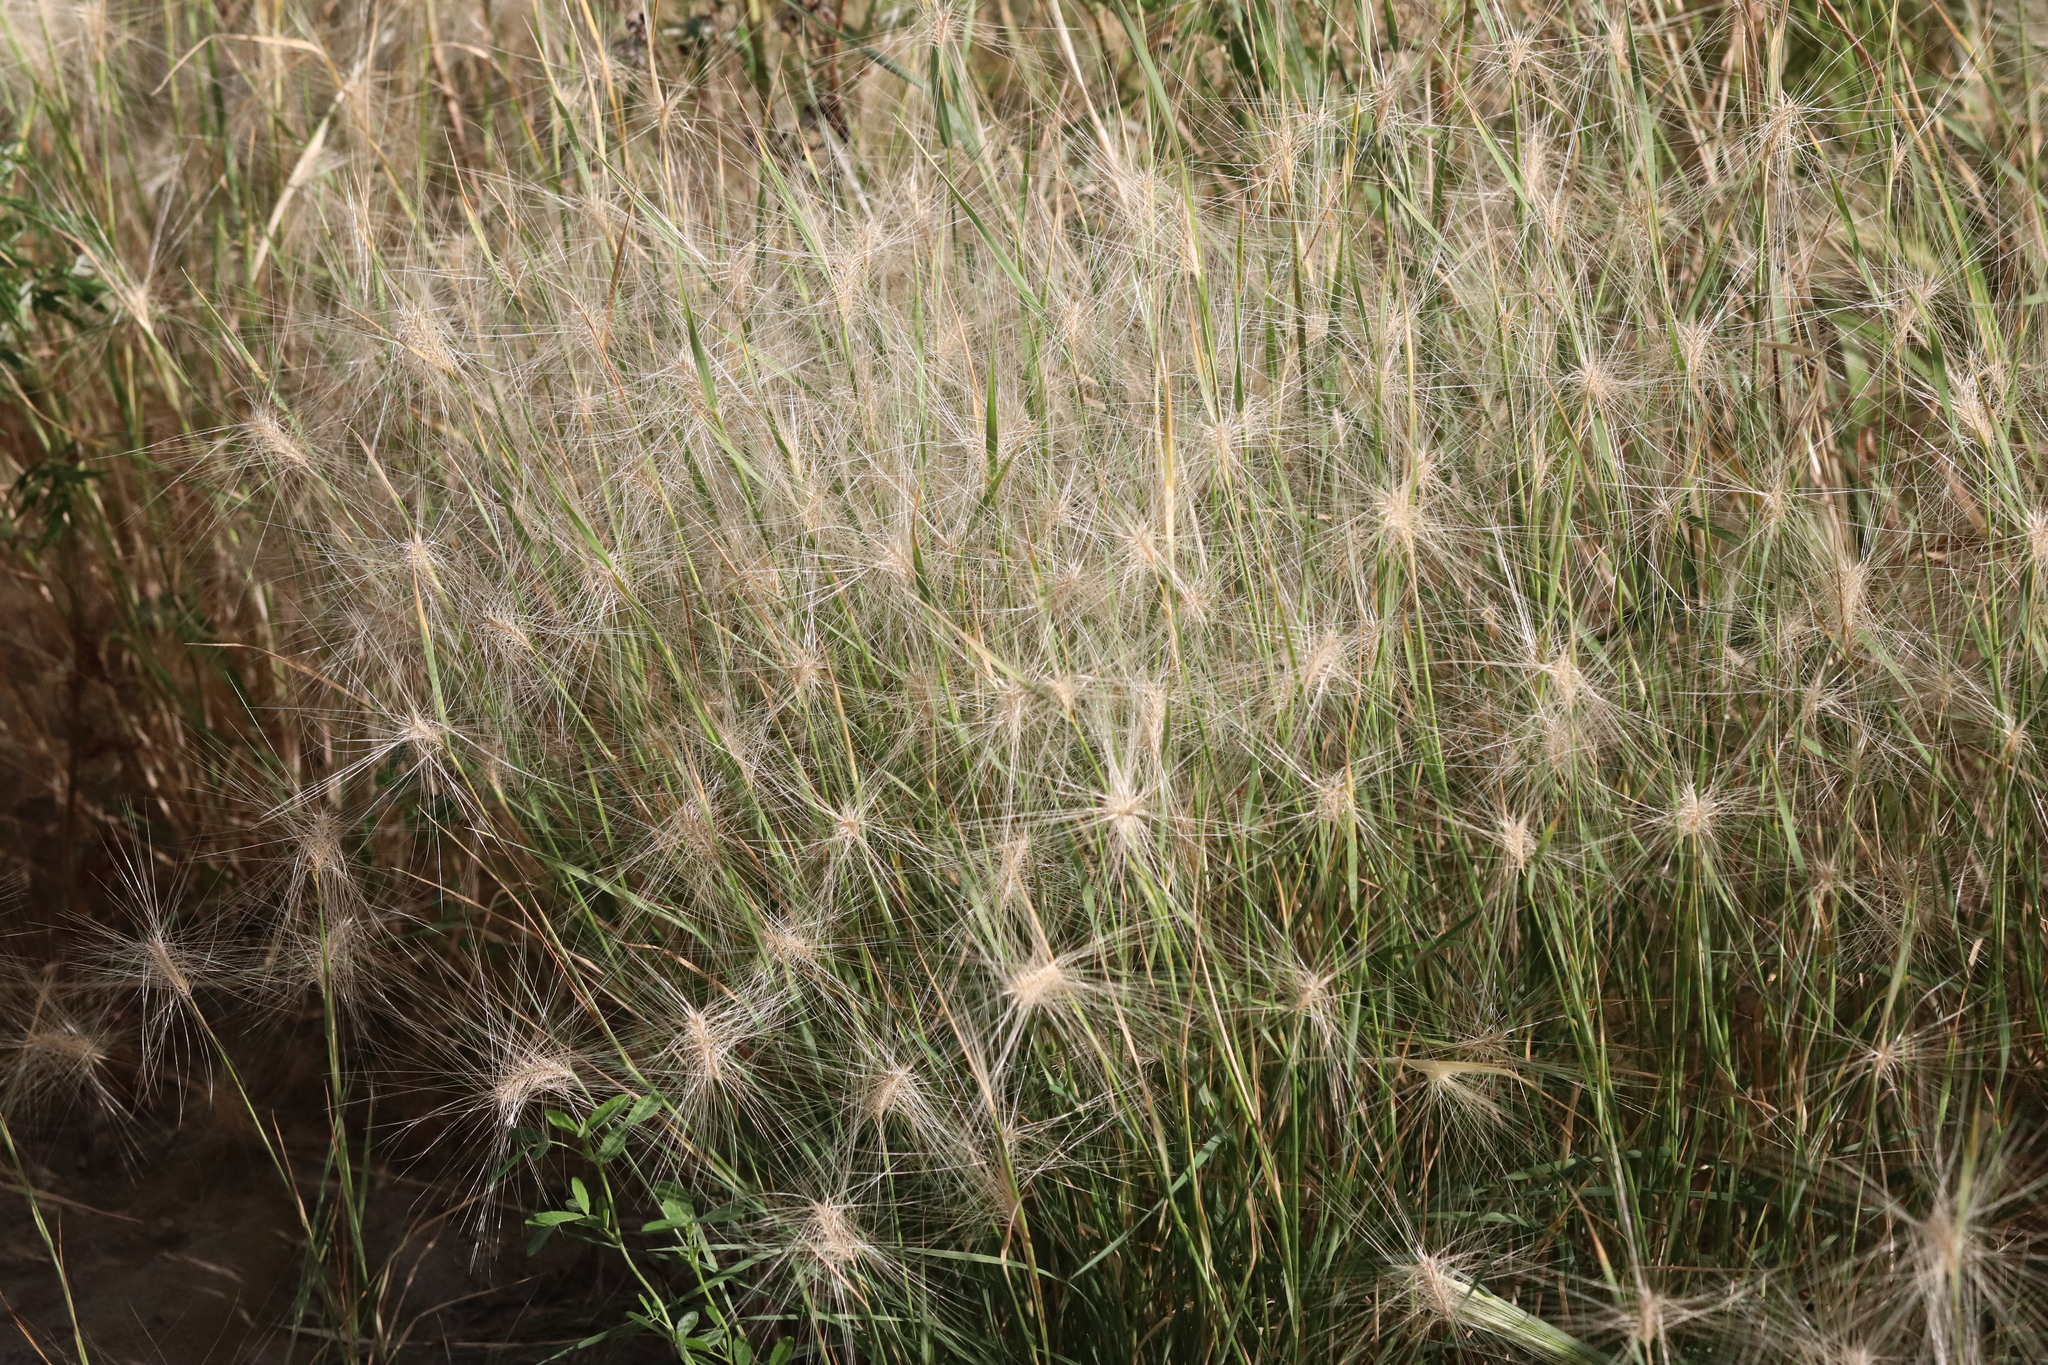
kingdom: Plantae
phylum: Tracheophyta
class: Liliopsida
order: Poales
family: Poaceae
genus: Hordeum
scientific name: Hordeum jubatum
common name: Foxtail barley
